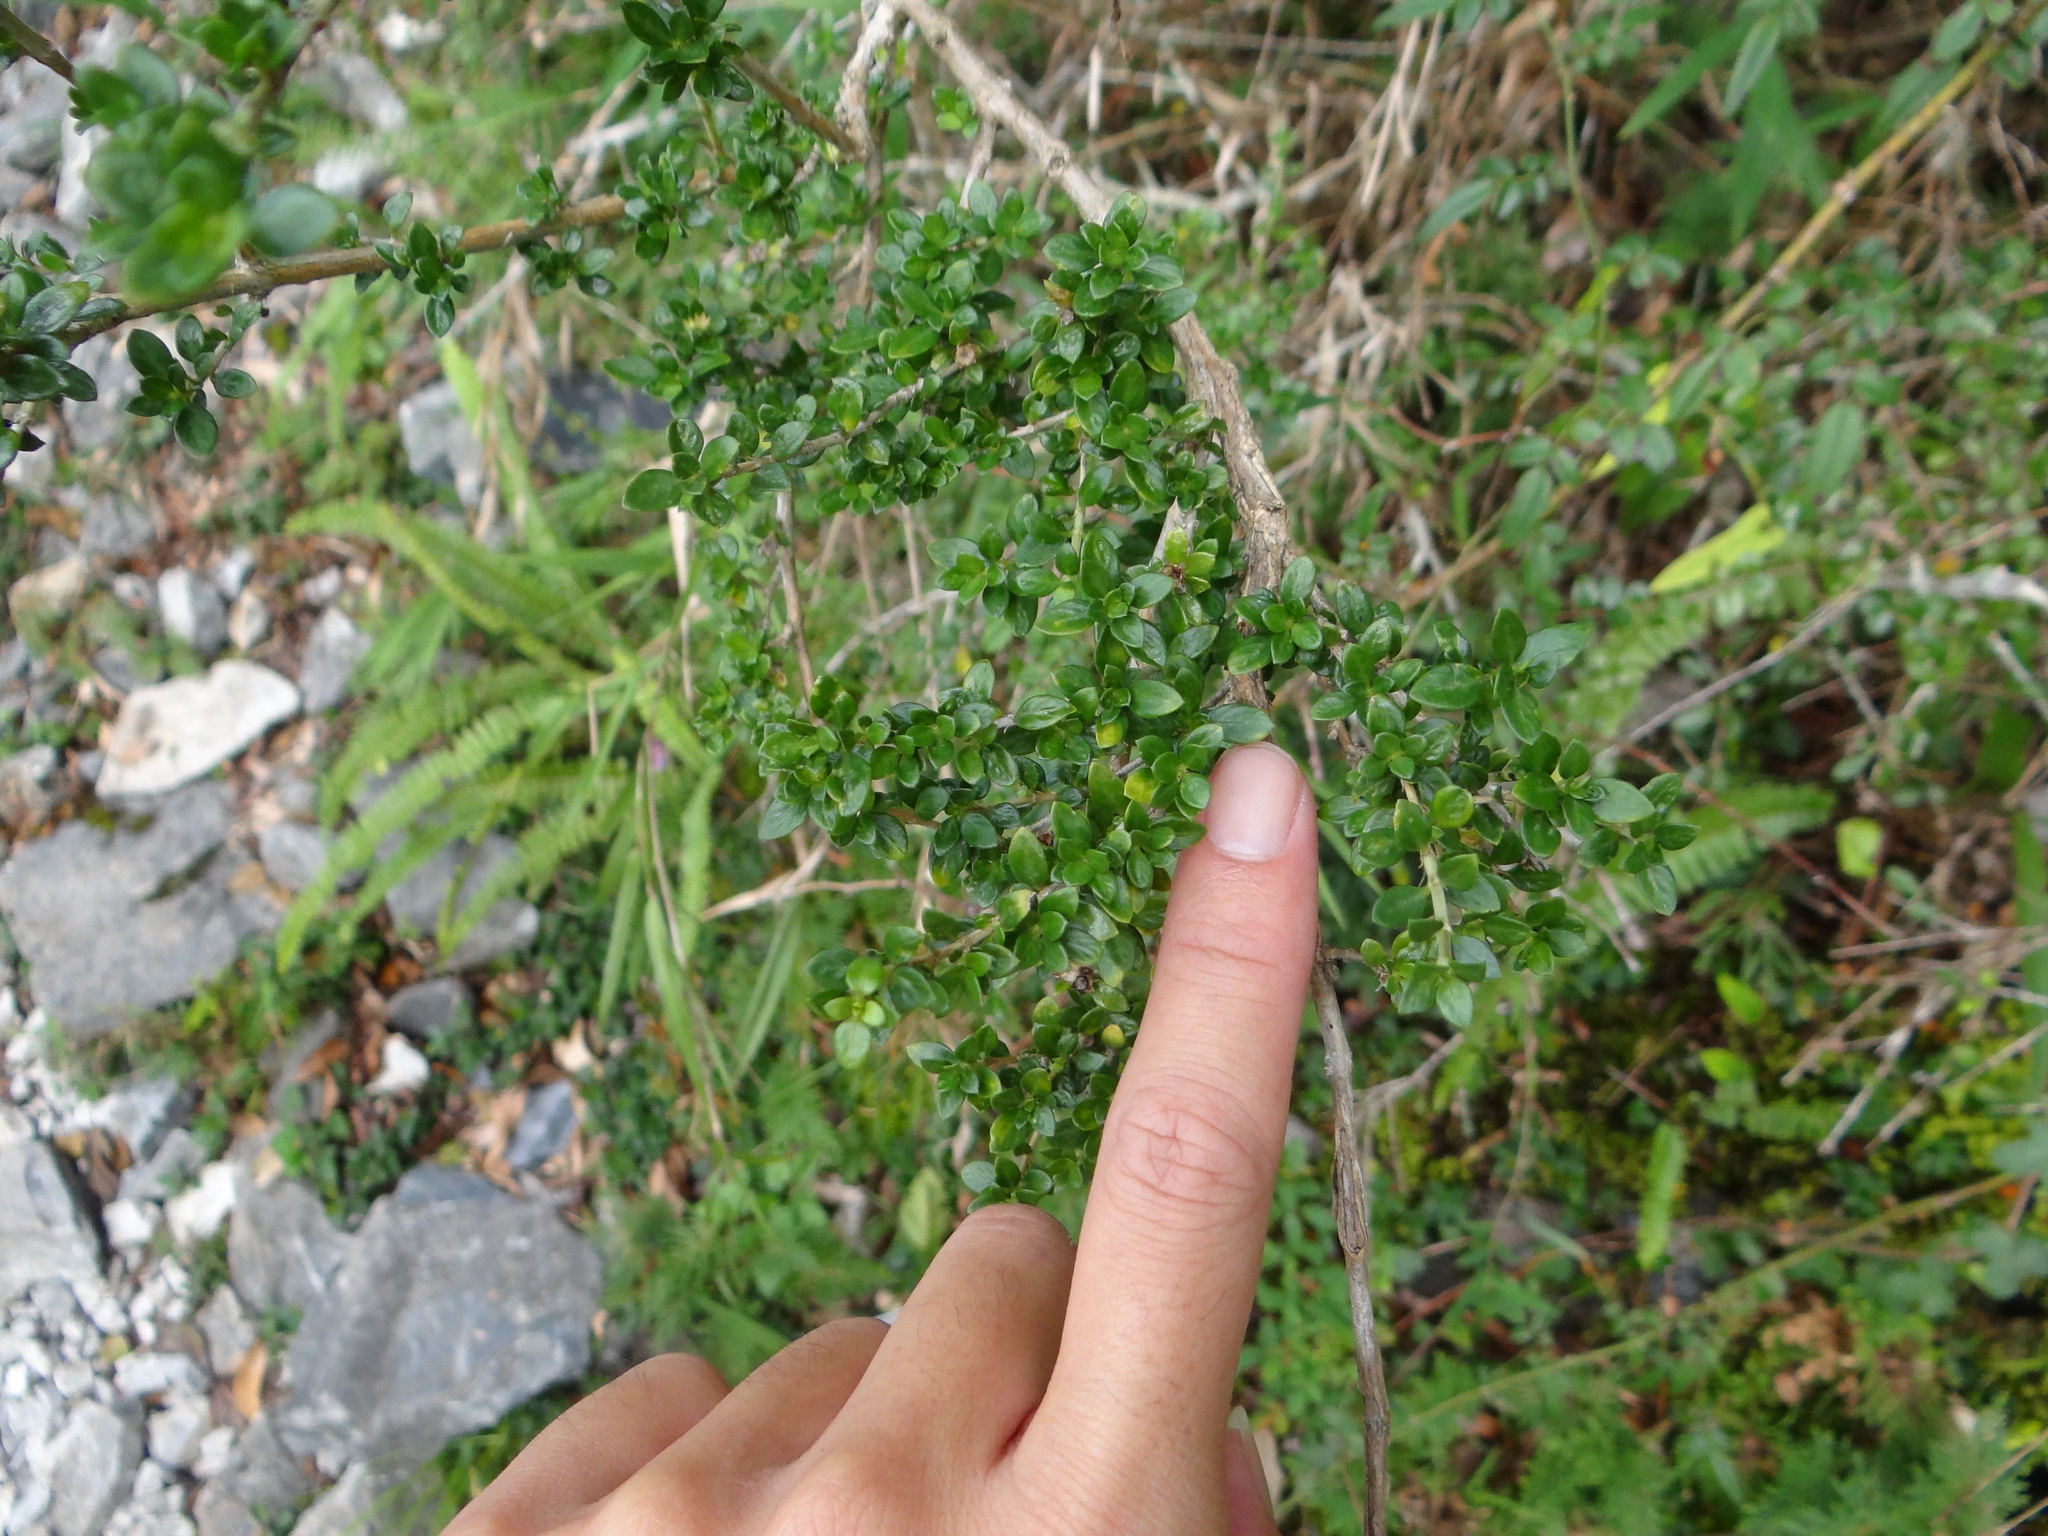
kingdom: Plantae
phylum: Tracheophyta
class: Magnoliopsida
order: Gentianales
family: Rubiaceae
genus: Buchozia
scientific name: Buchozia japonica
